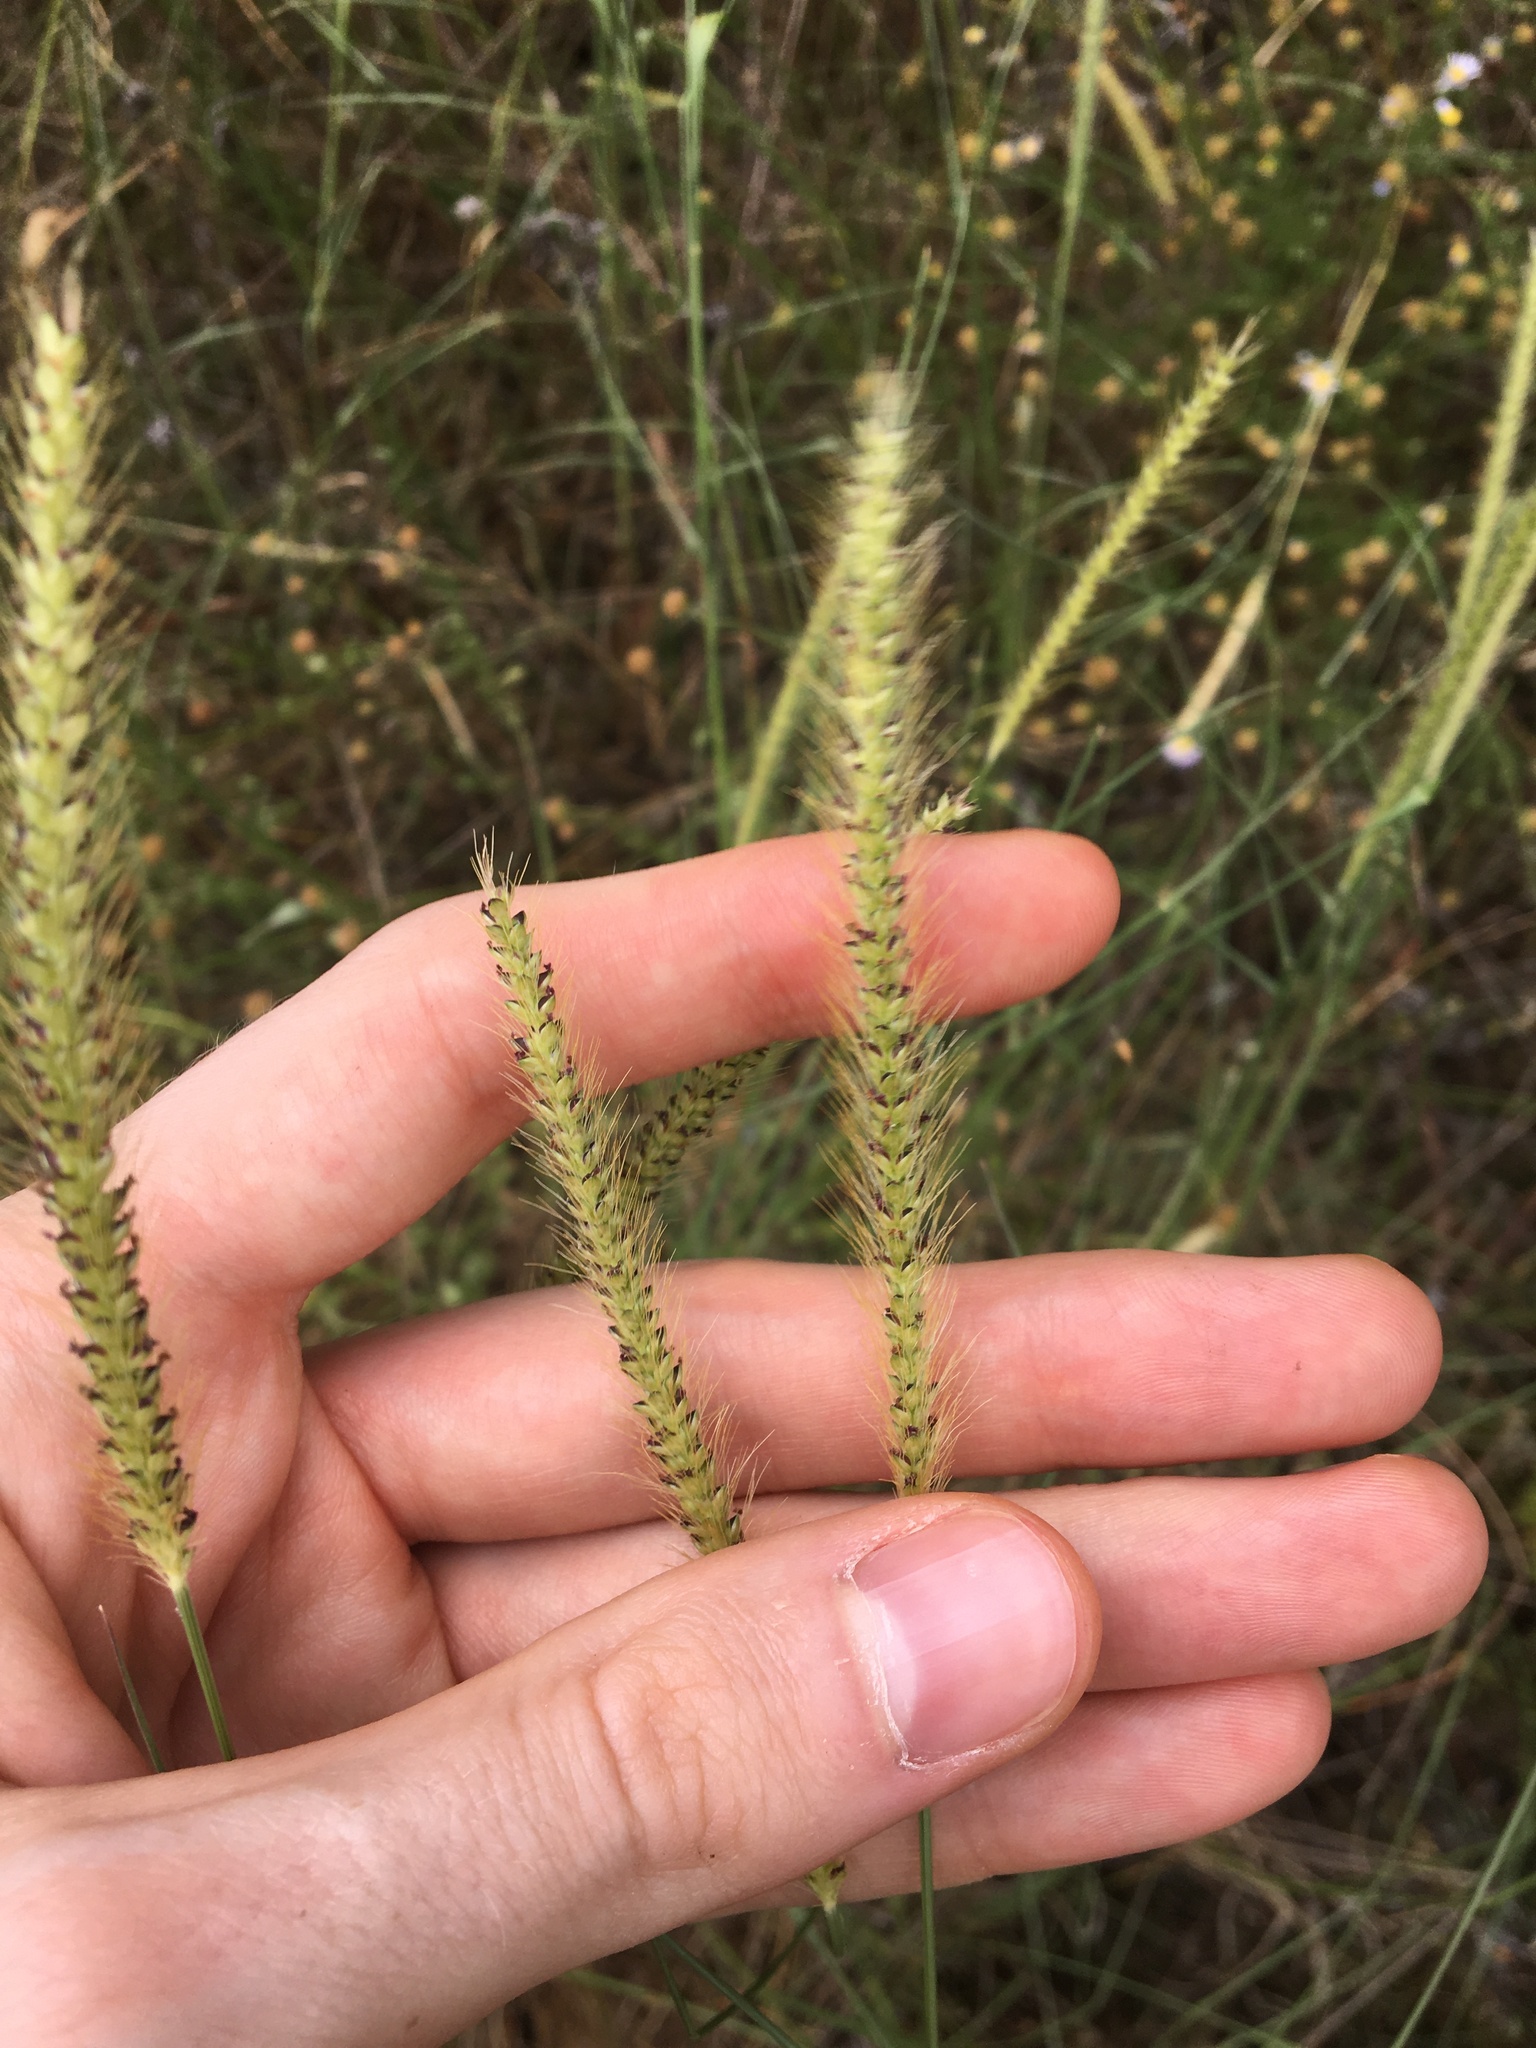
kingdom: Plantae
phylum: Tracheophyta
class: Liliopsida
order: Poales
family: Poaceae
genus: Setaria
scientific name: Setaria parviflora
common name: Knotroot bristle-grass
